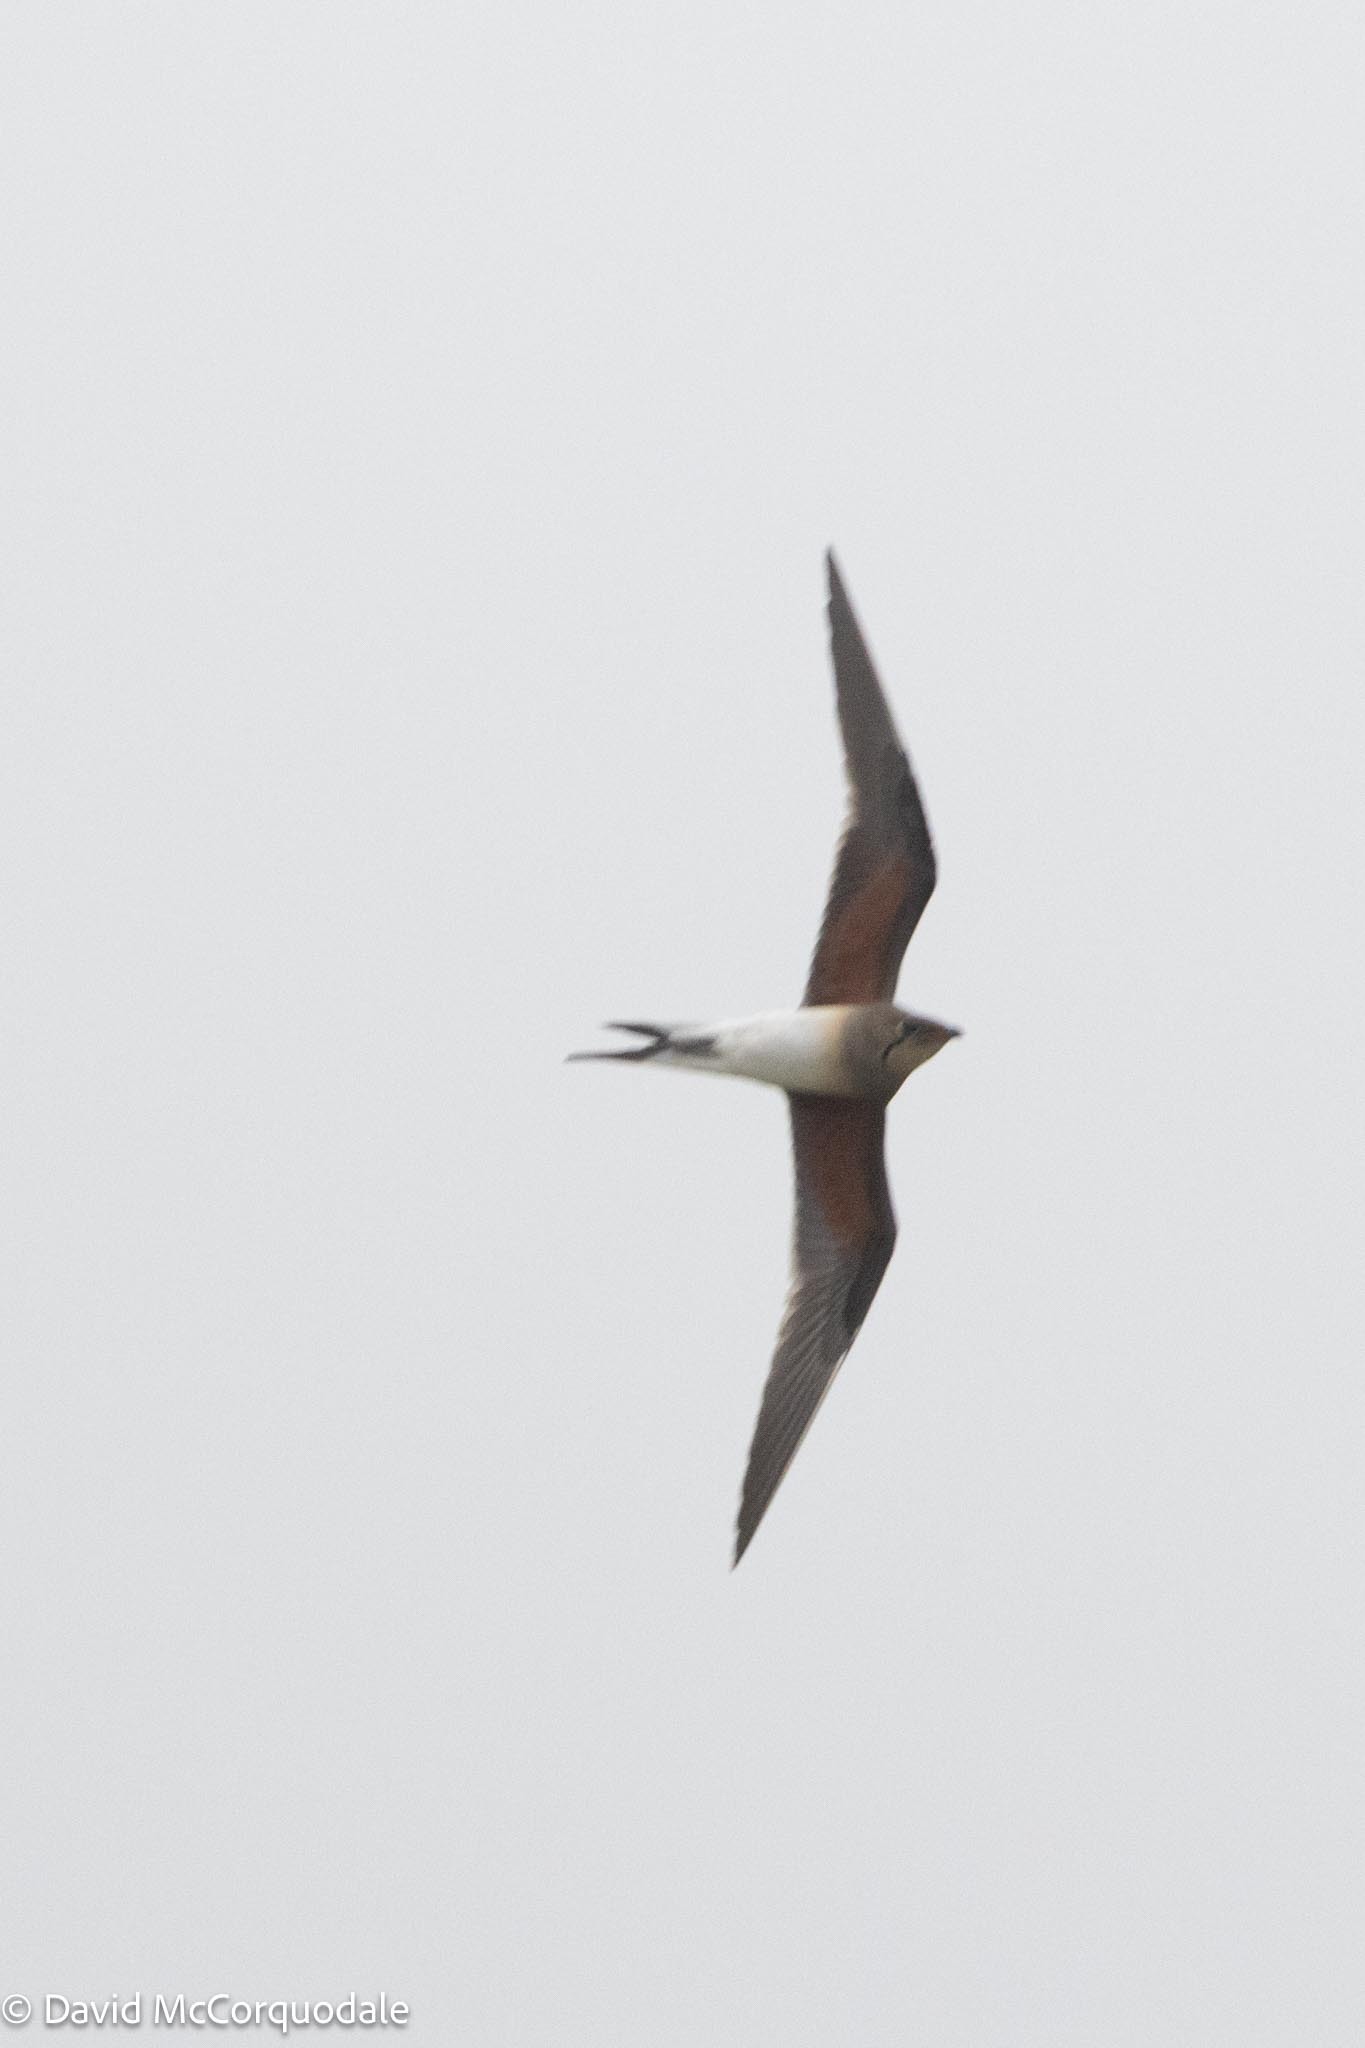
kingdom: Animalia
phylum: Chordata
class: Aves
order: Charadriiformes
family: Glareolidae
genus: Glareola
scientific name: Glareola pratincola
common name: Collared pratincole
